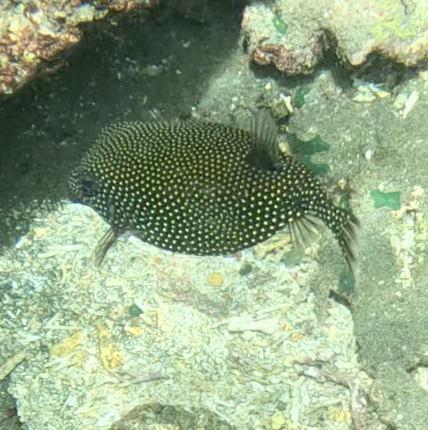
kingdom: Animalia
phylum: Chordata
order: Tetraodontiformes
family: Ostraciidae
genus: Ostracion
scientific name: Ostracion meleagris
